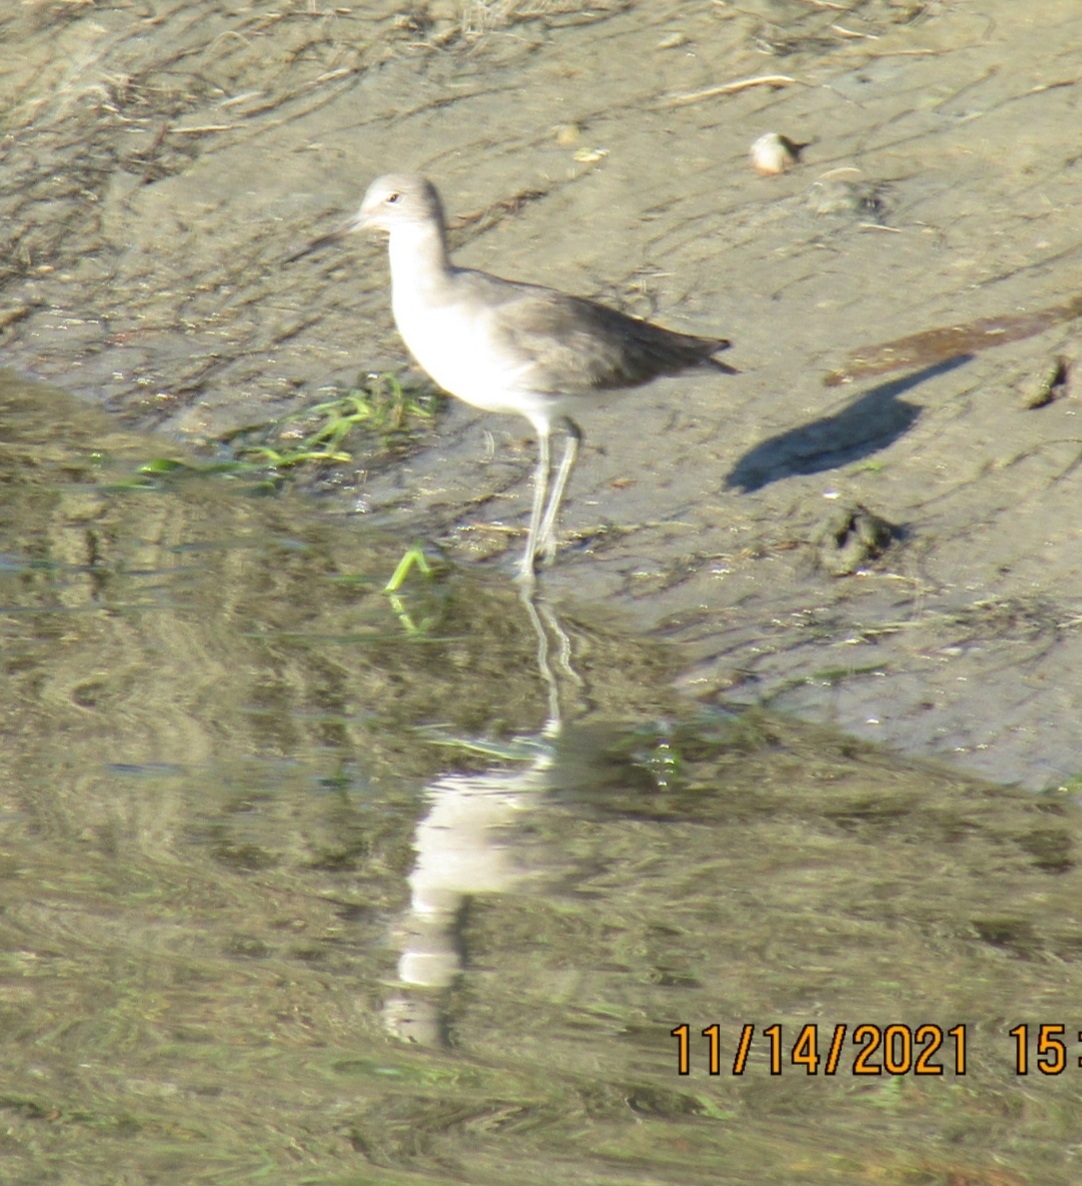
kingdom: Animalia
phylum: Chordata
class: Aves
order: Charadriiformes
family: Scolopacidae
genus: Tringa
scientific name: Tringa semipalmata
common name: Willet
